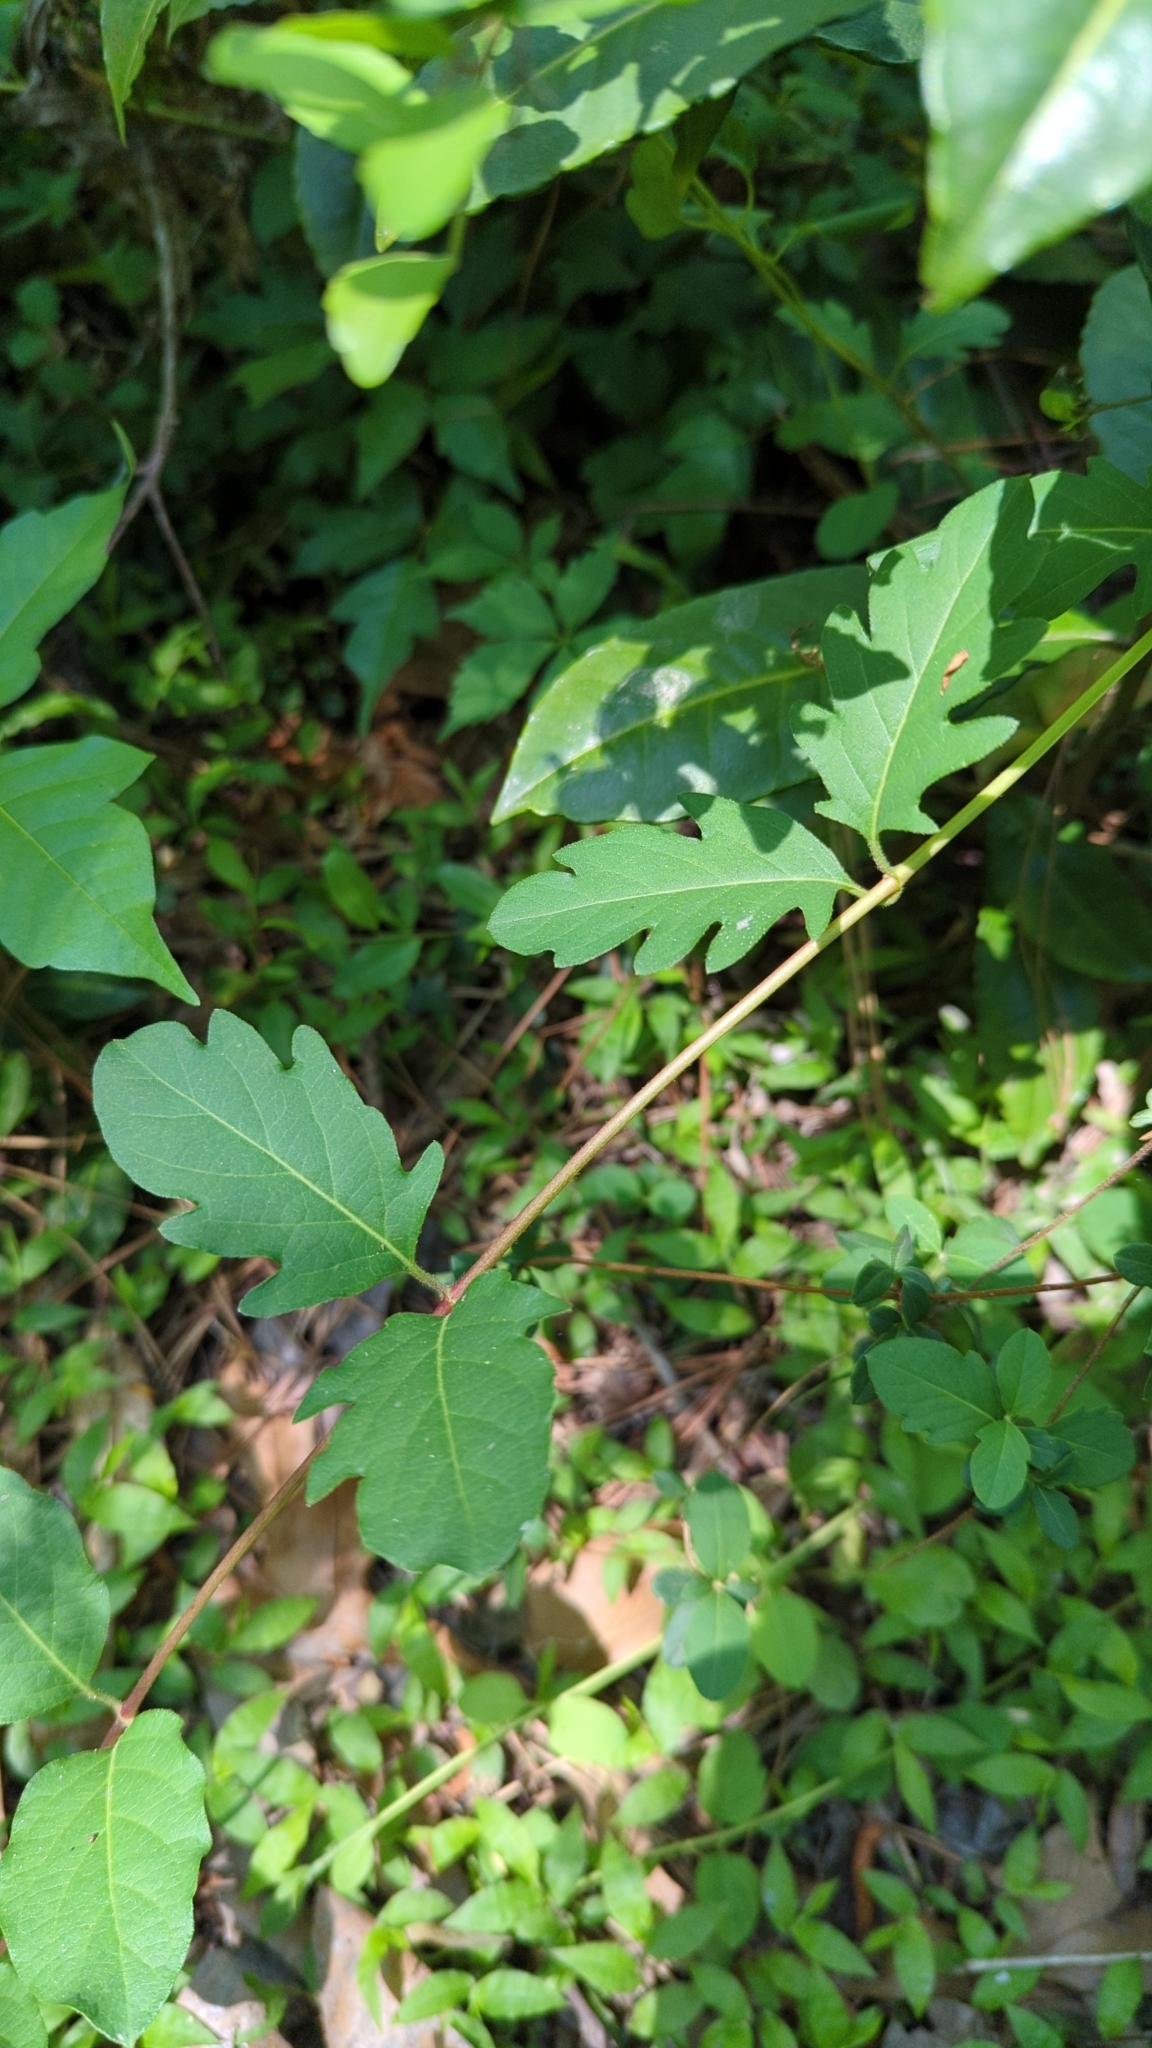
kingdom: Plantae
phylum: Tracheophyta
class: Magnoliopsida
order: Dipsacales
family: Caprifoliaceae
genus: Lonicera
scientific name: Lonicera japonica
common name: Japanese honeysuckle
